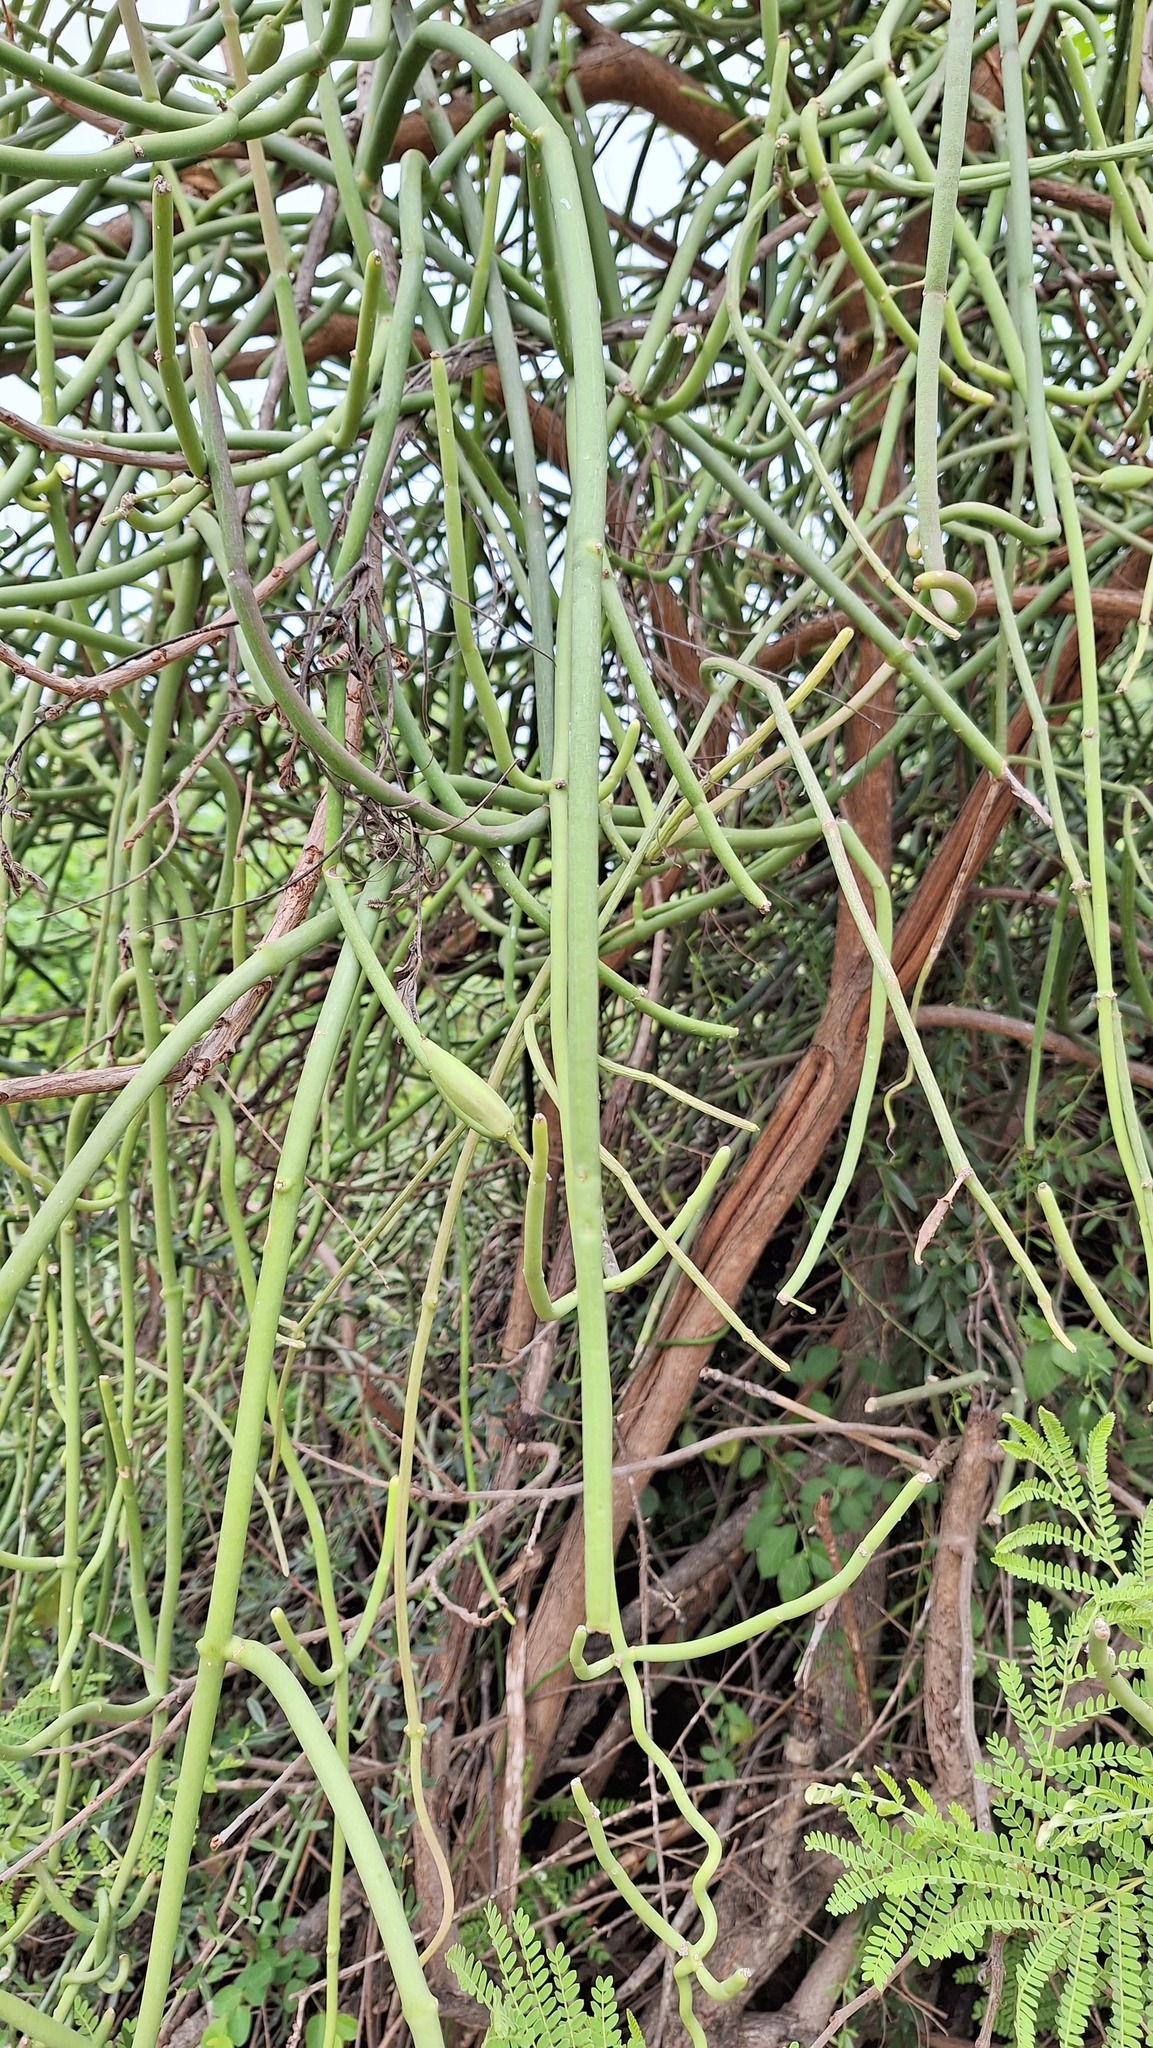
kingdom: Plantae
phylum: Tracheophyta
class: Magnoliopsida
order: Gentianales
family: Apocynaceae
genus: Cynanchum
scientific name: Cynanchum viminale
